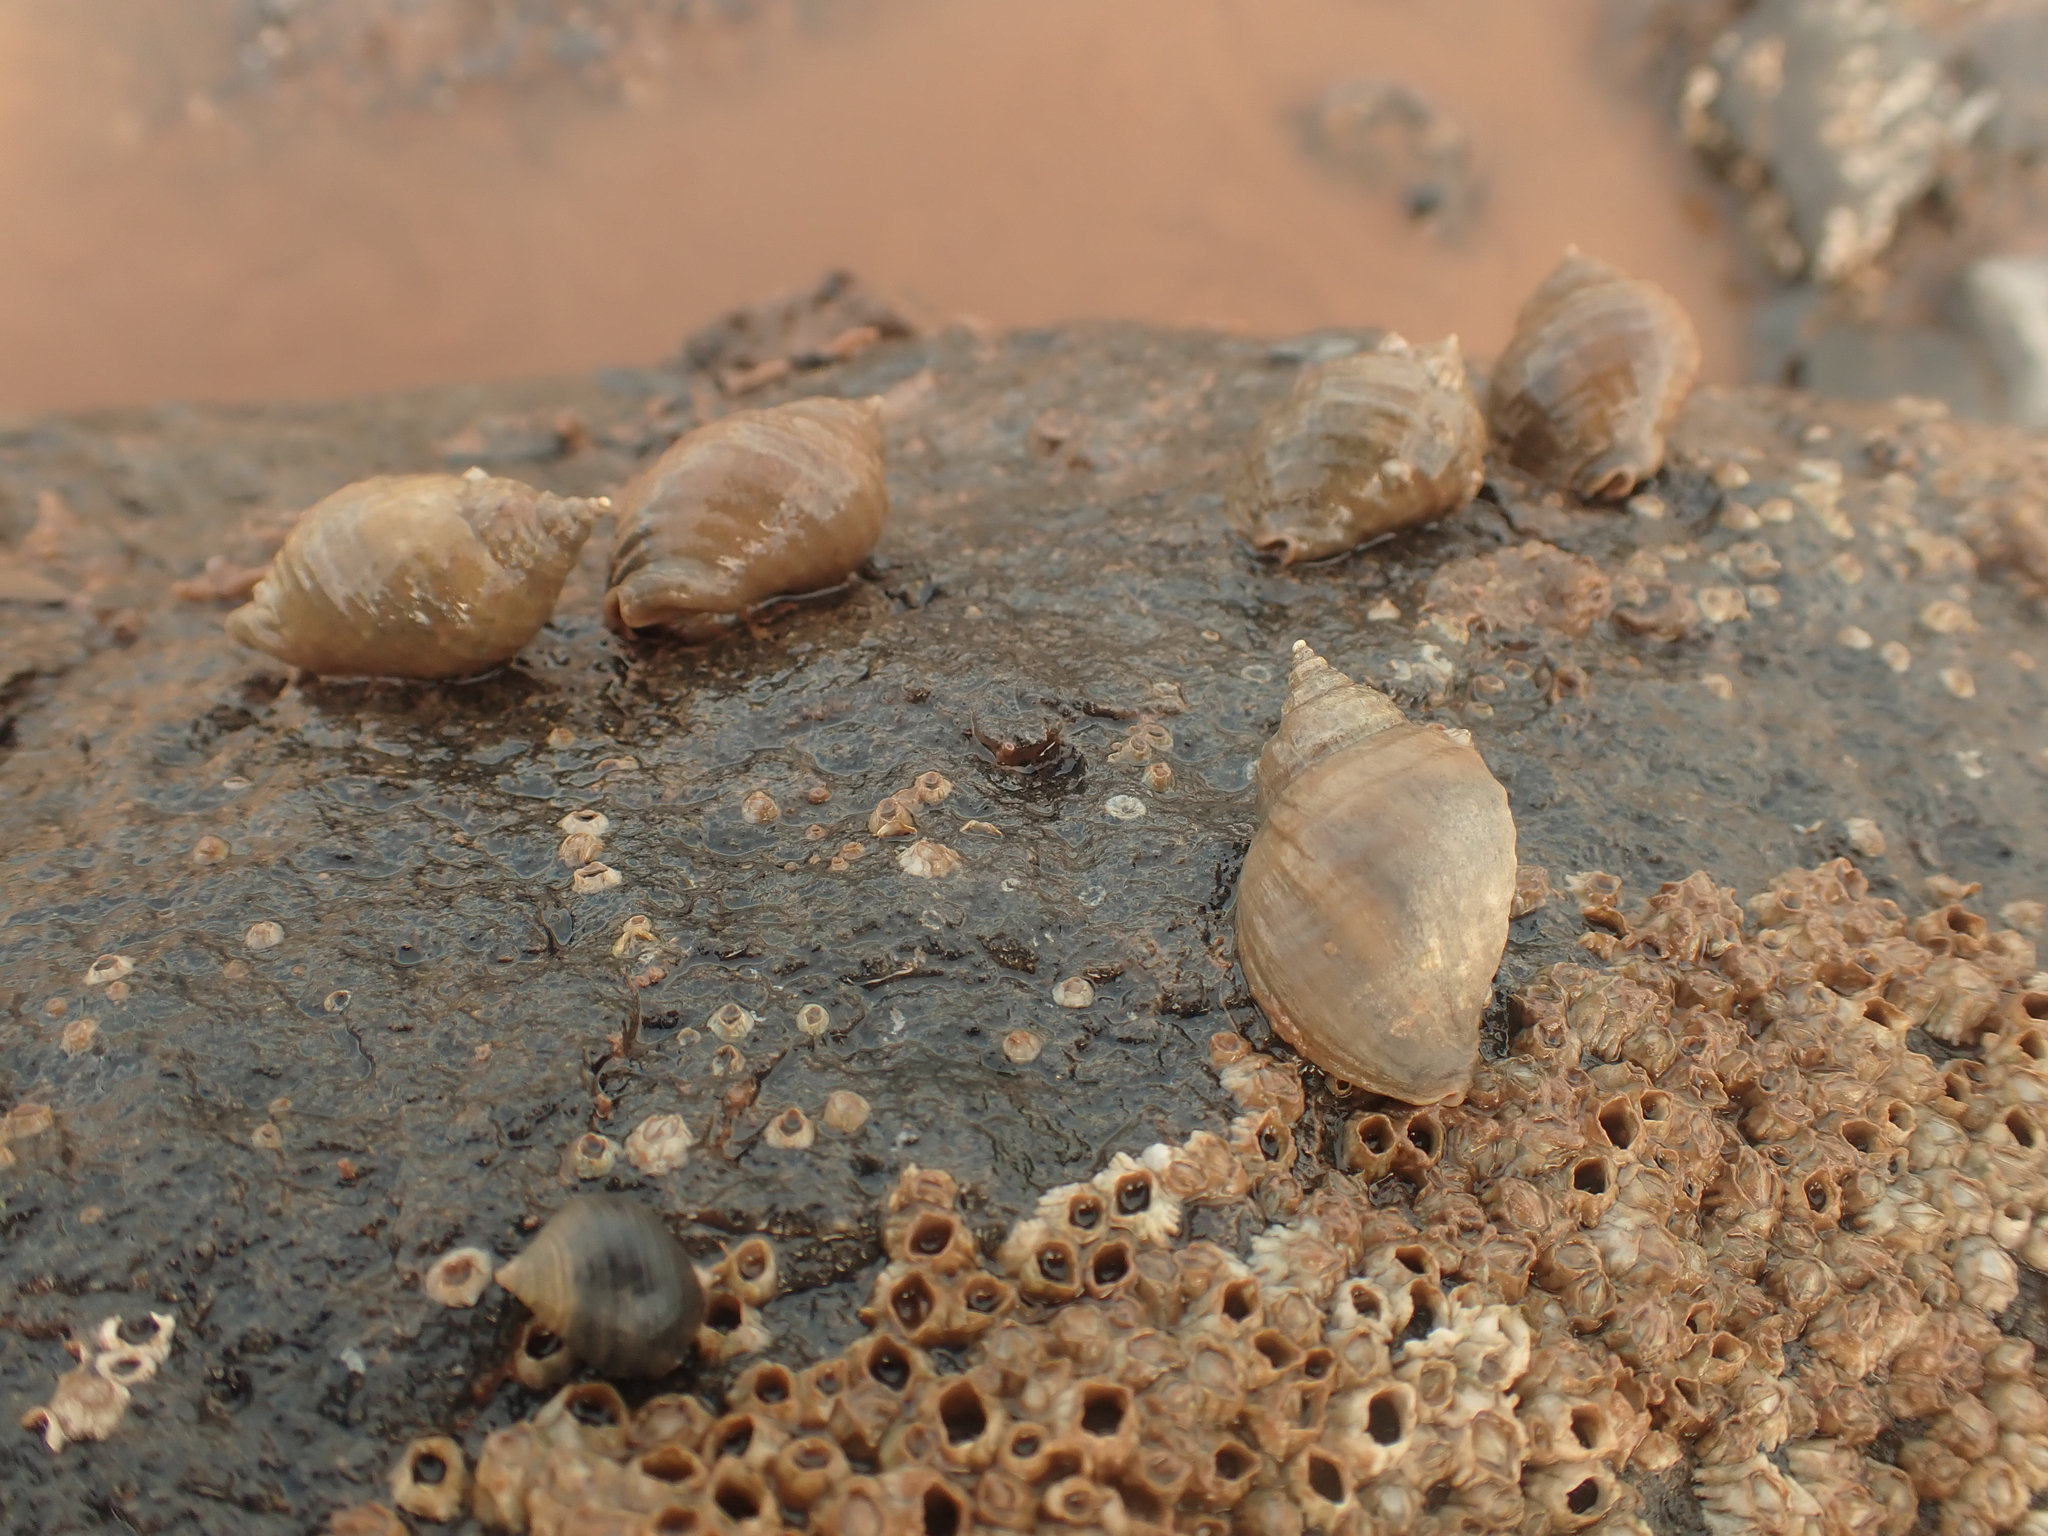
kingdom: Animalia
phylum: Mollusca
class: Gastropoda
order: Neogastropoda
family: Muricidae
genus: Nucella
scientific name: Nucella lapillus
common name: Dog whelk
